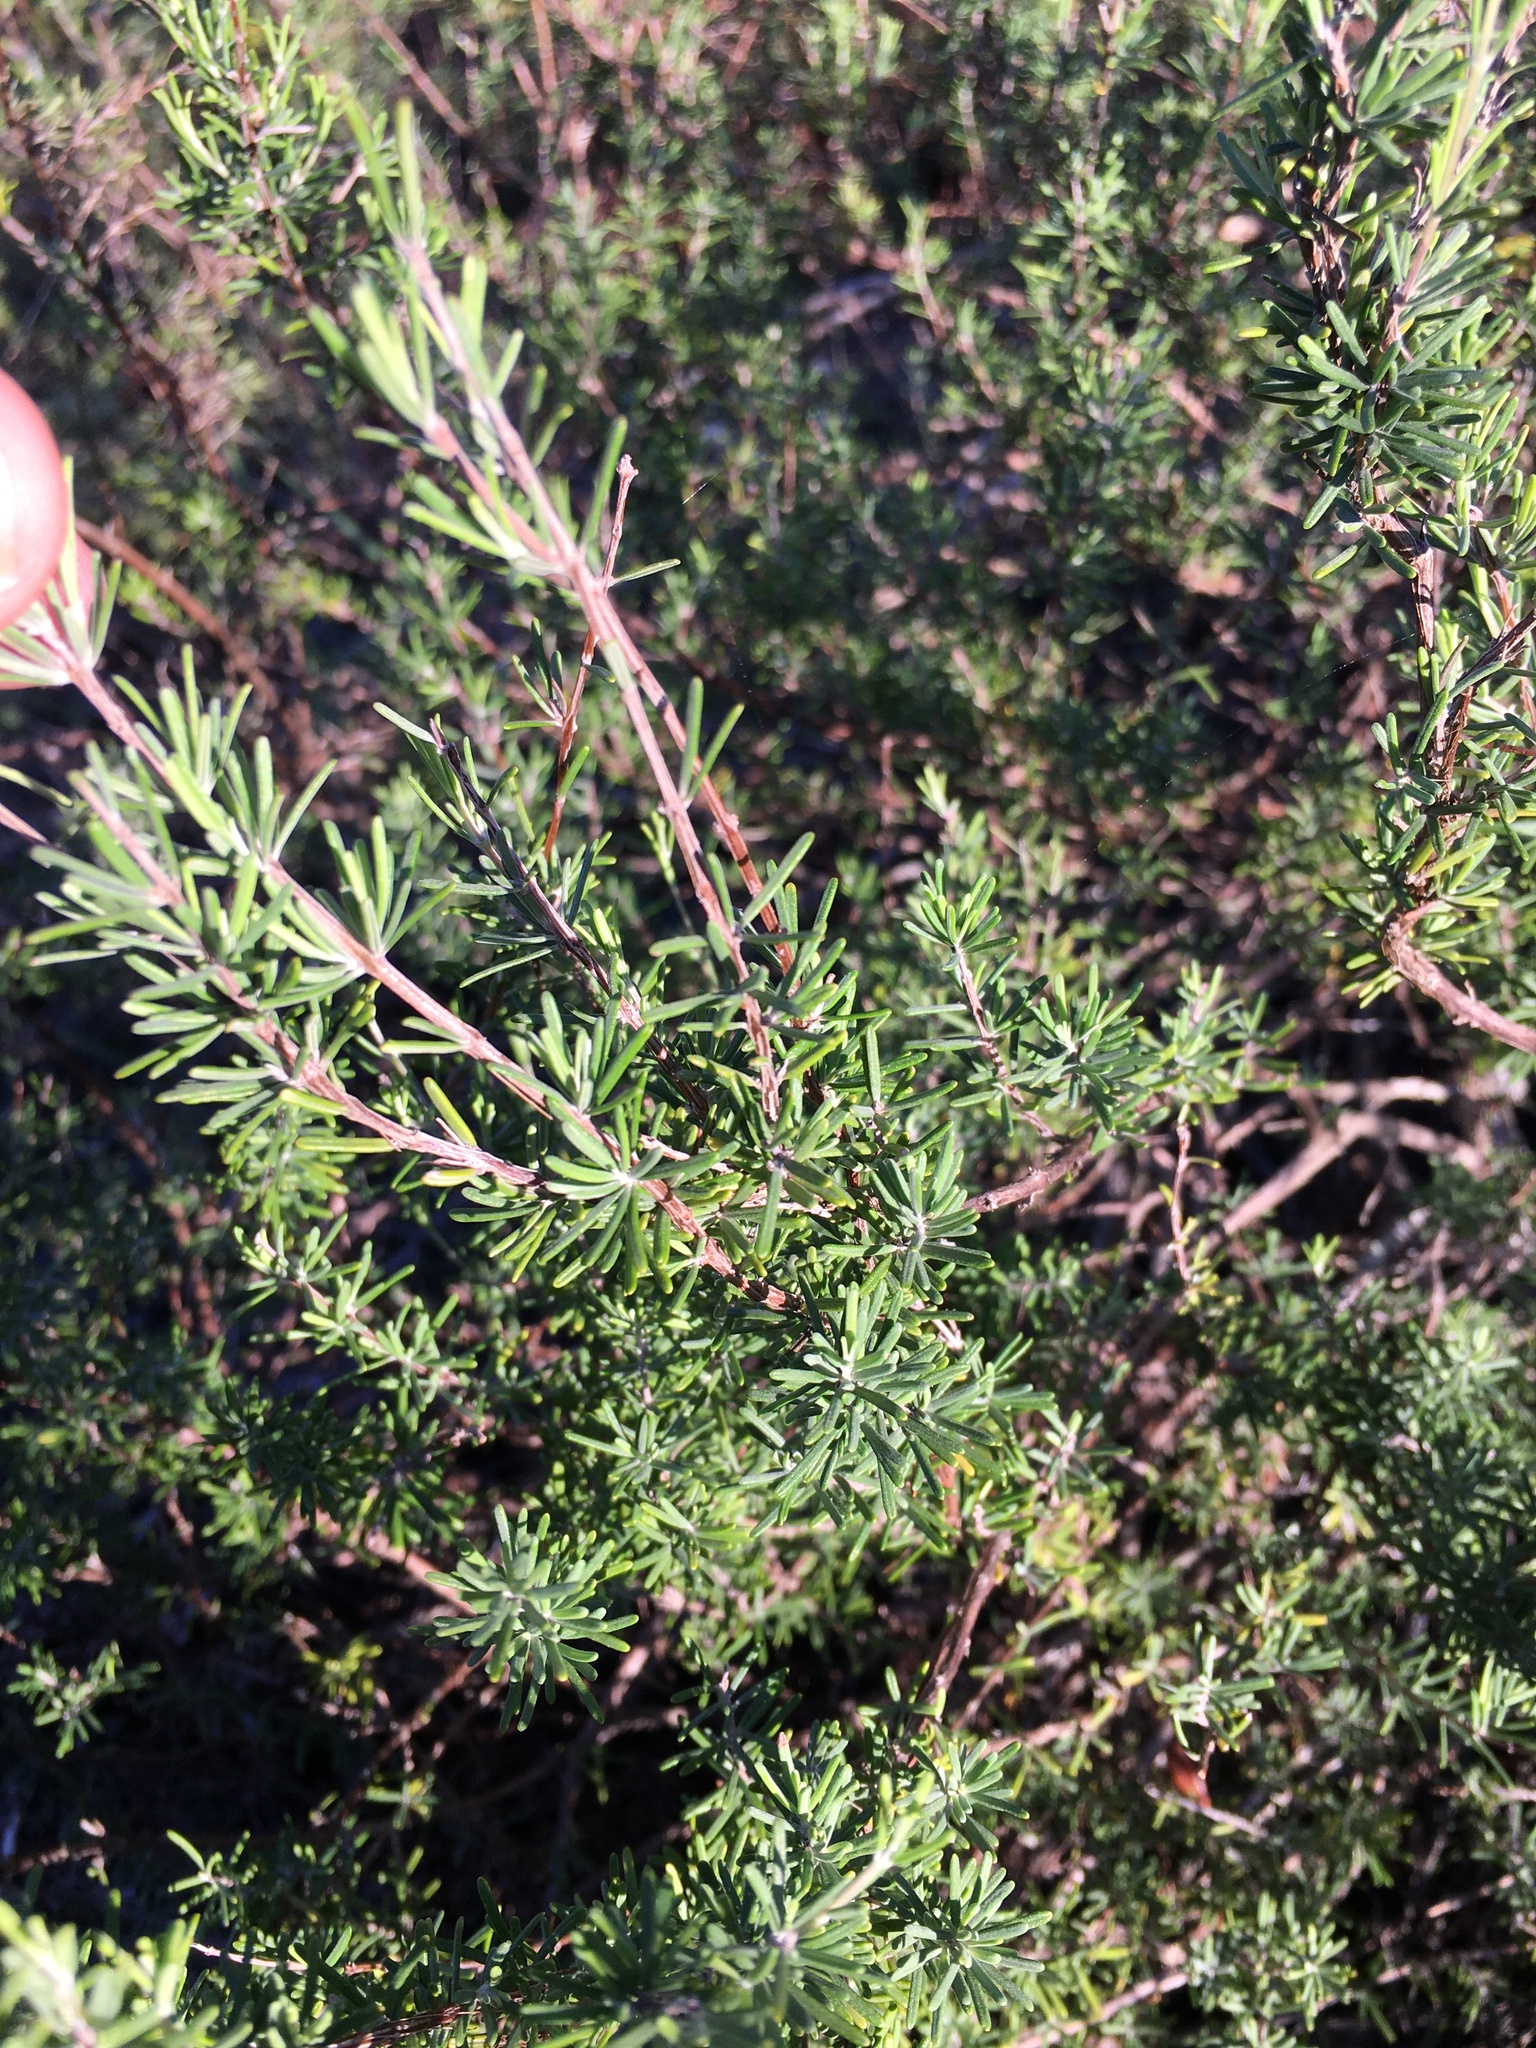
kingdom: Plantae
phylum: Tracheophyta
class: Magnoliopsida
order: Lamiales
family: Lamiaceae
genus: Conradina
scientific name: Conradina canescens
